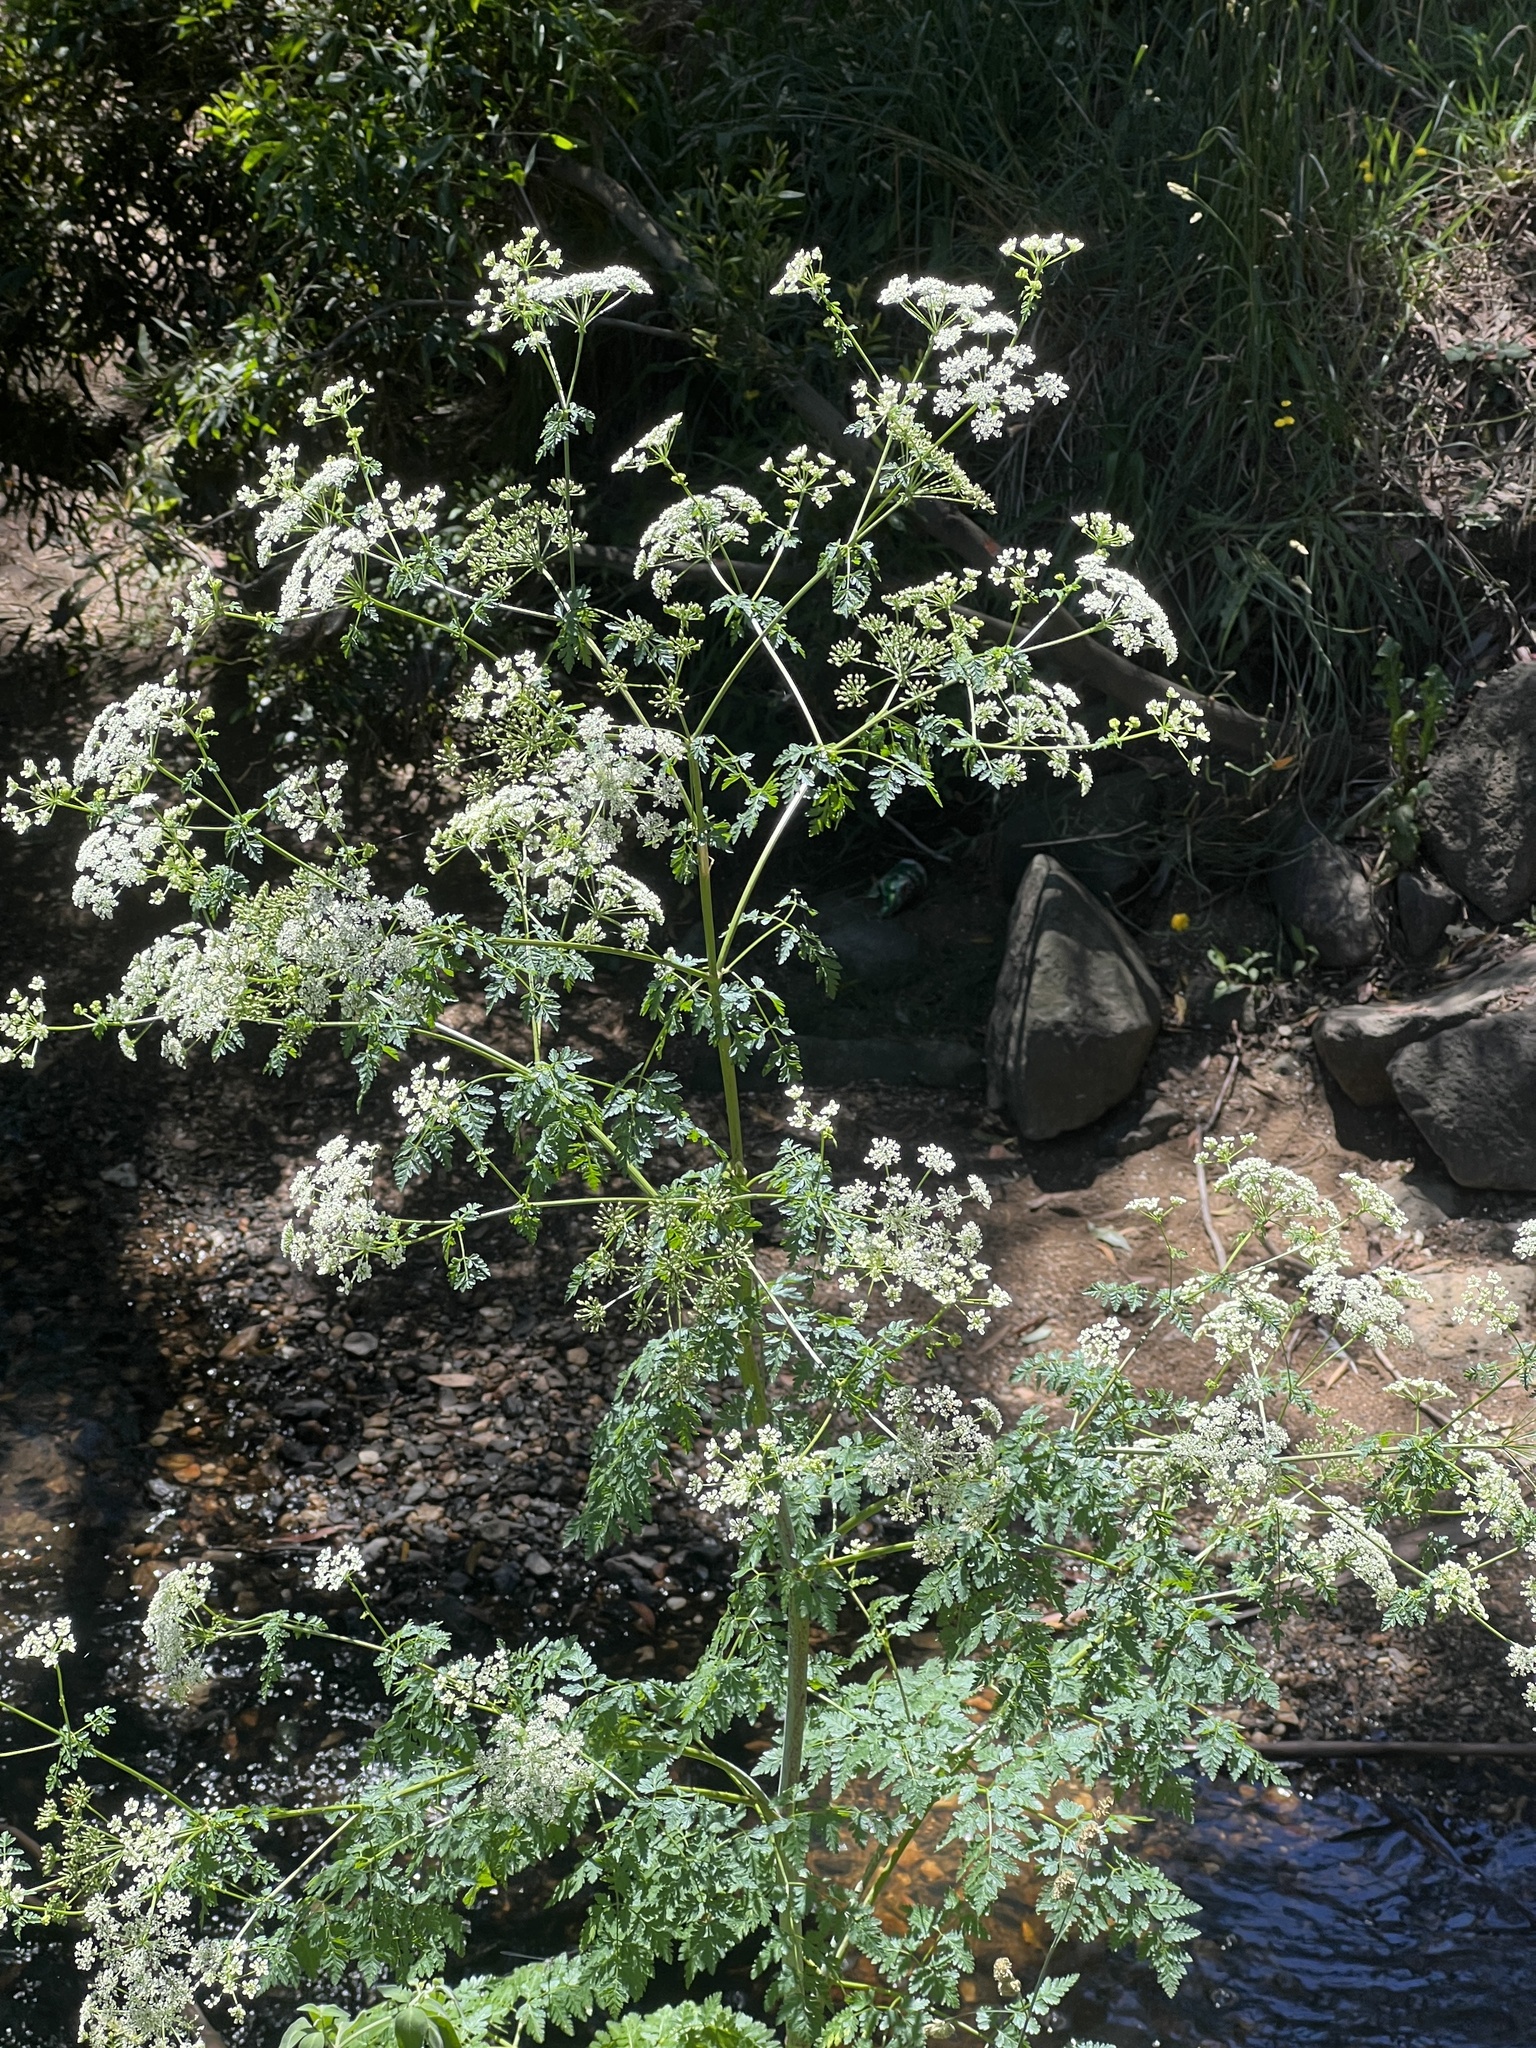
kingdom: Plantae
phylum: Tracheophyta
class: Magnoliopsida
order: Apiales
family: Apiaceae
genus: Conium
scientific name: Conium maculatum
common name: Hemlock
